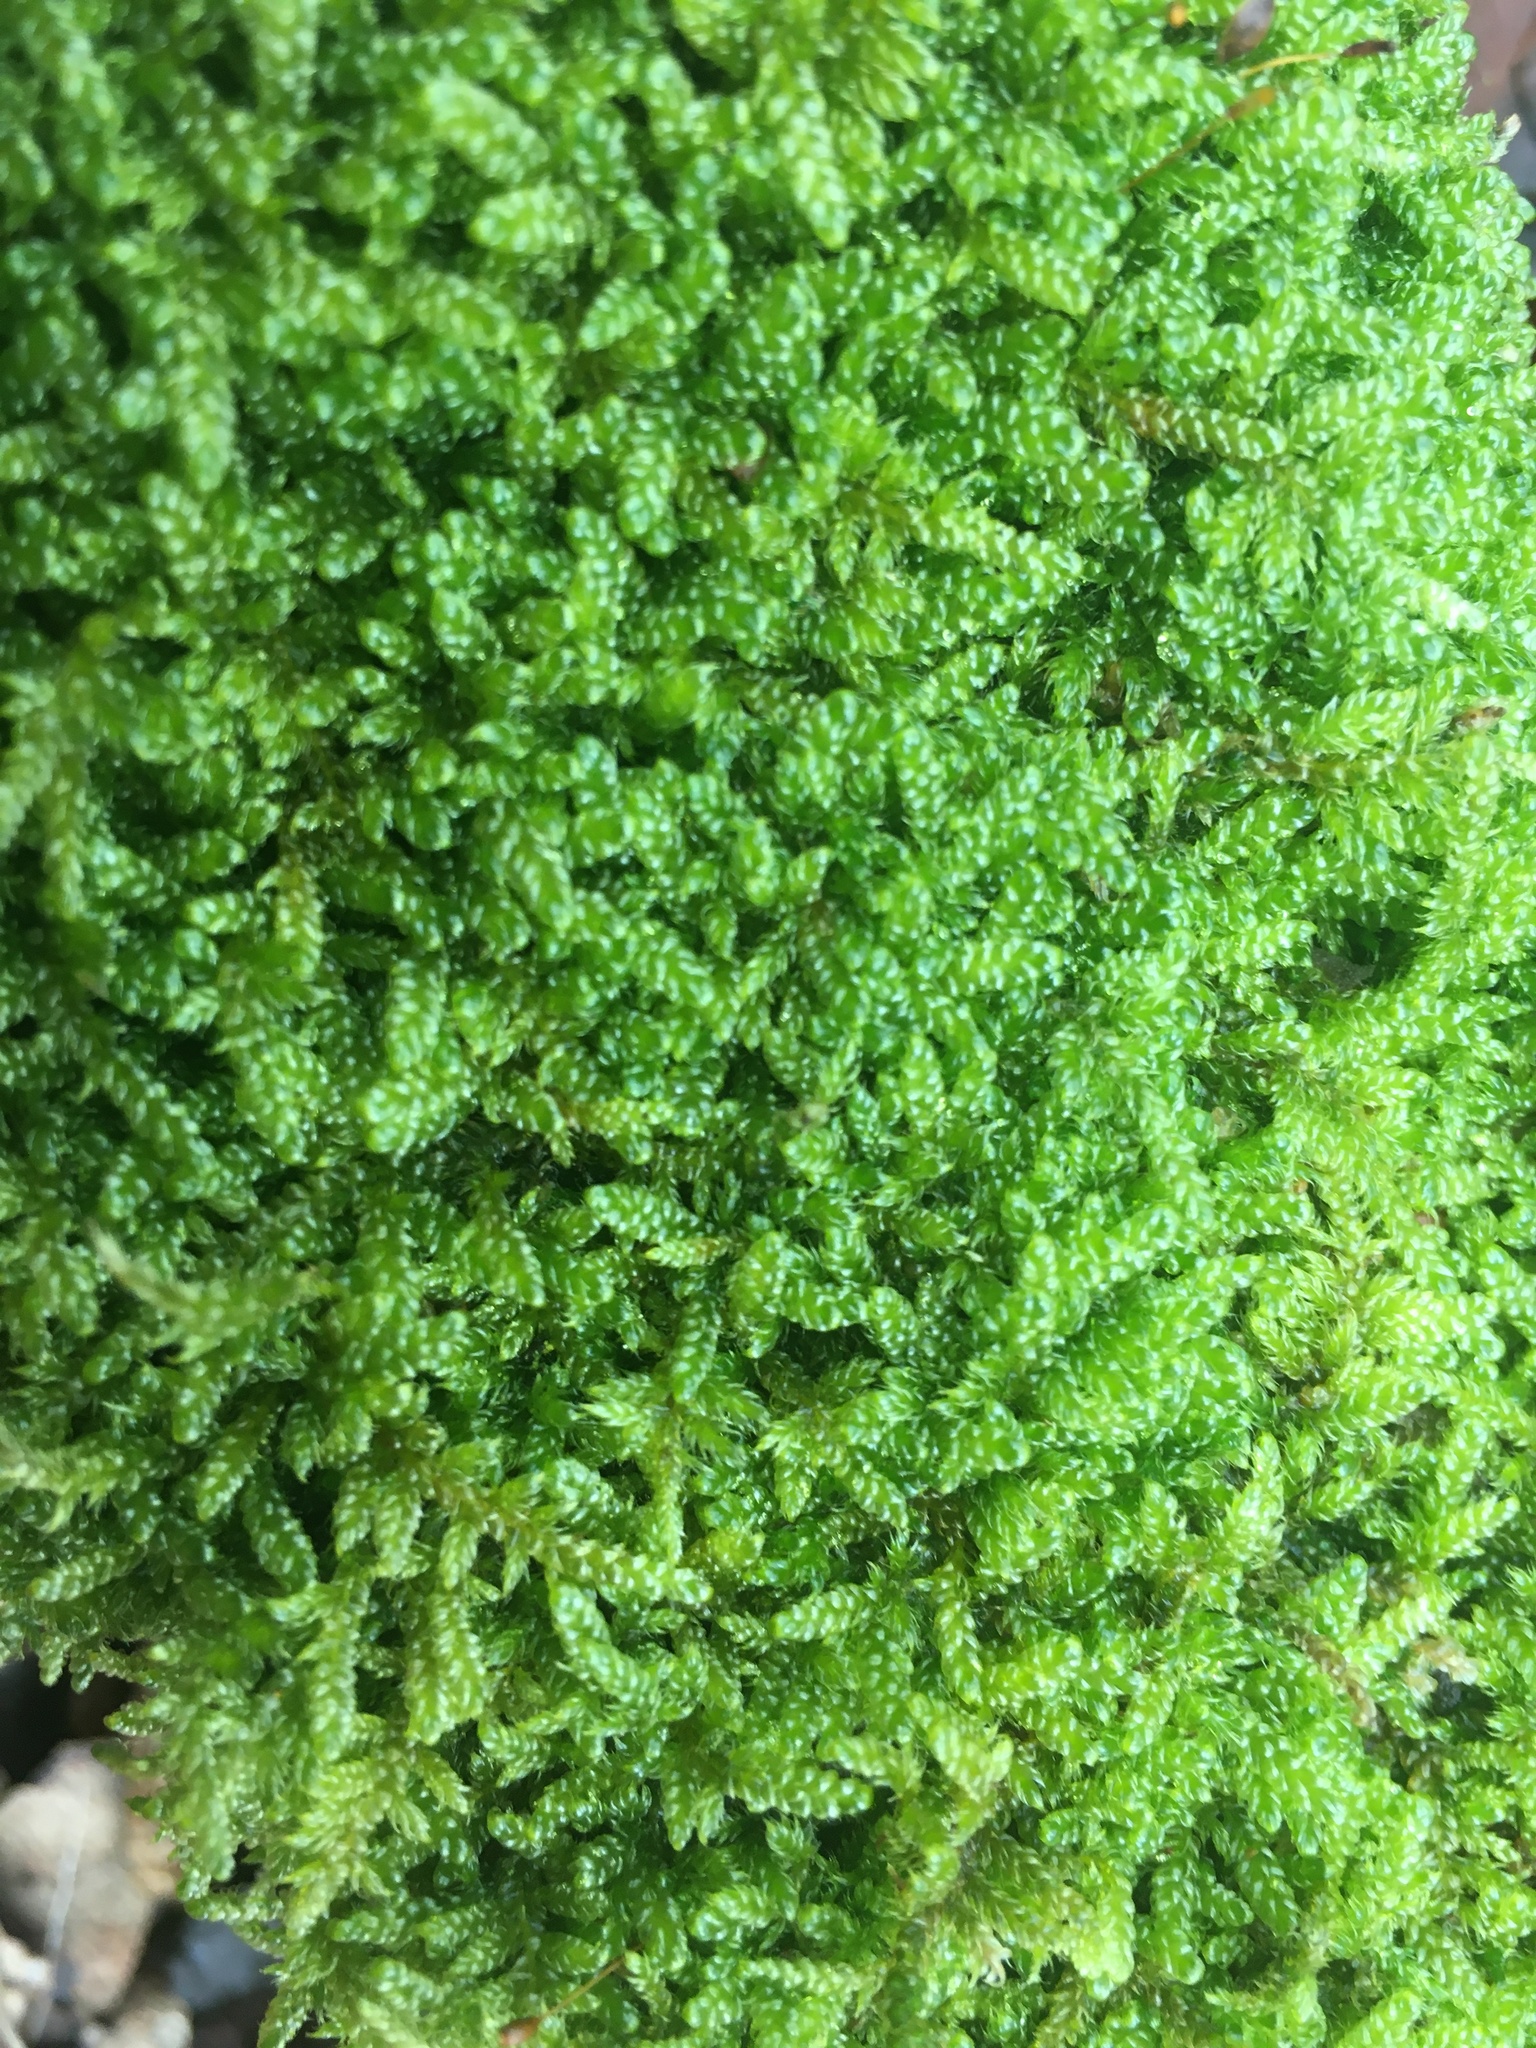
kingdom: Plantae
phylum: Bryophyta
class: Bryopsida
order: Hypnales
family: Hypnaceae
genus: Hypnum
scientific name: Hypnum cupressiforme
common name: Cypress-leaved plait-moss
